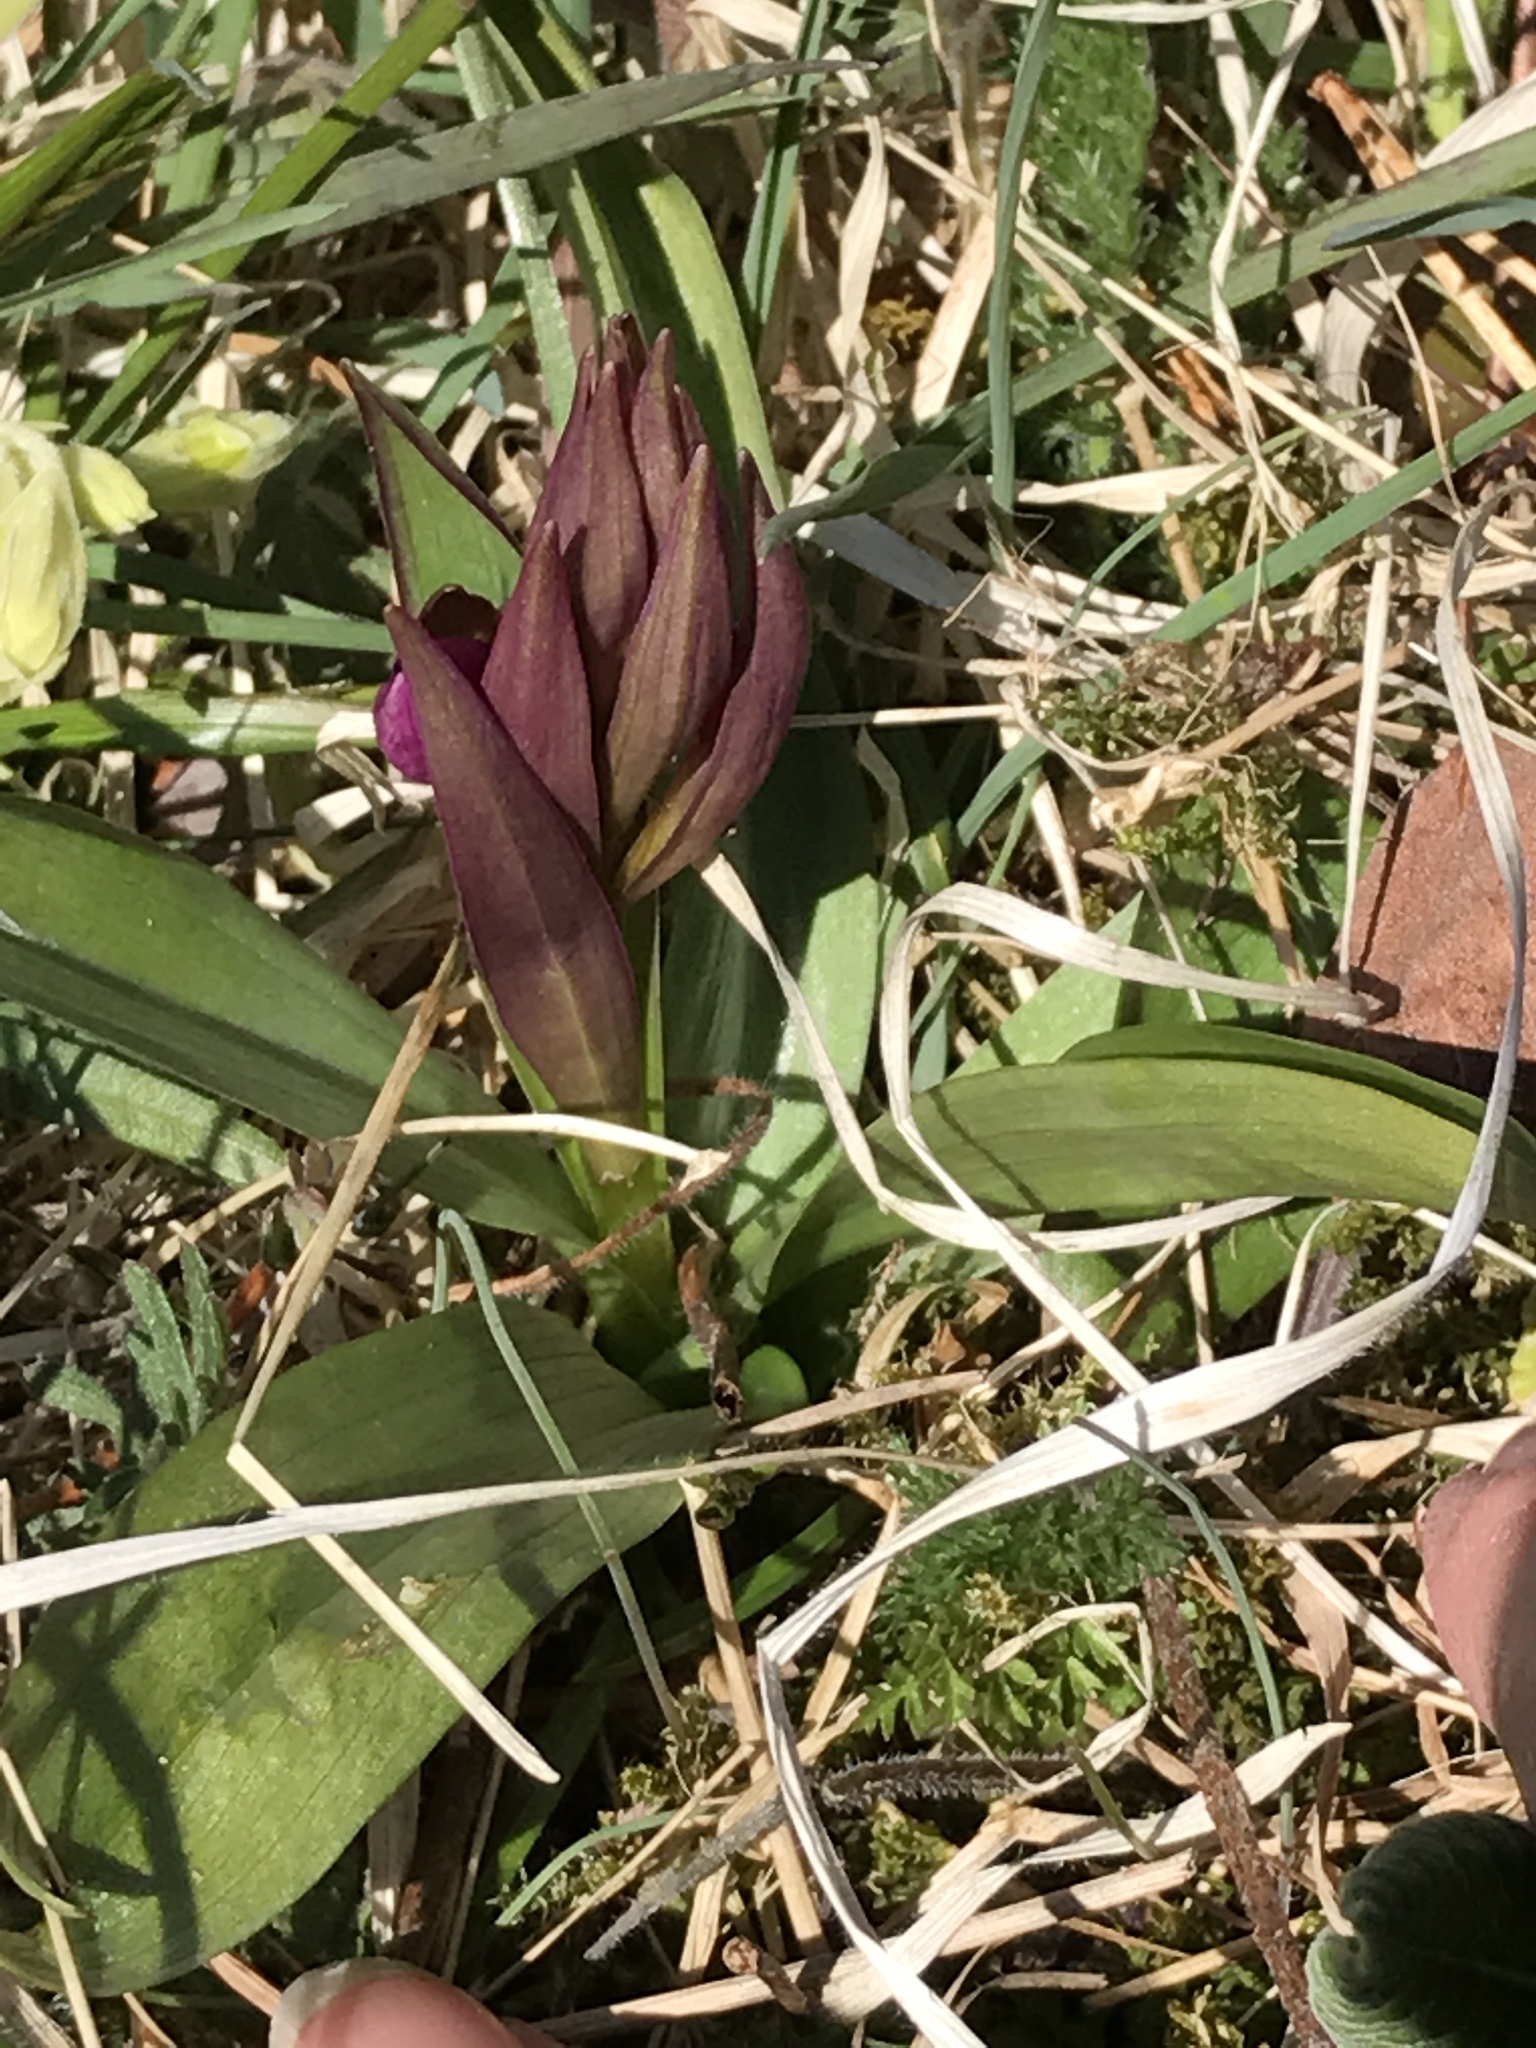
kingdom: Plantae
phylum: Tracheophyta
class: Liliopsida
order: Asparagales
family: Orchidaceae
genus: Dactylorhiza
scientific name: Dactylorhiza sambucina
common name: Elder-flowered orchid
